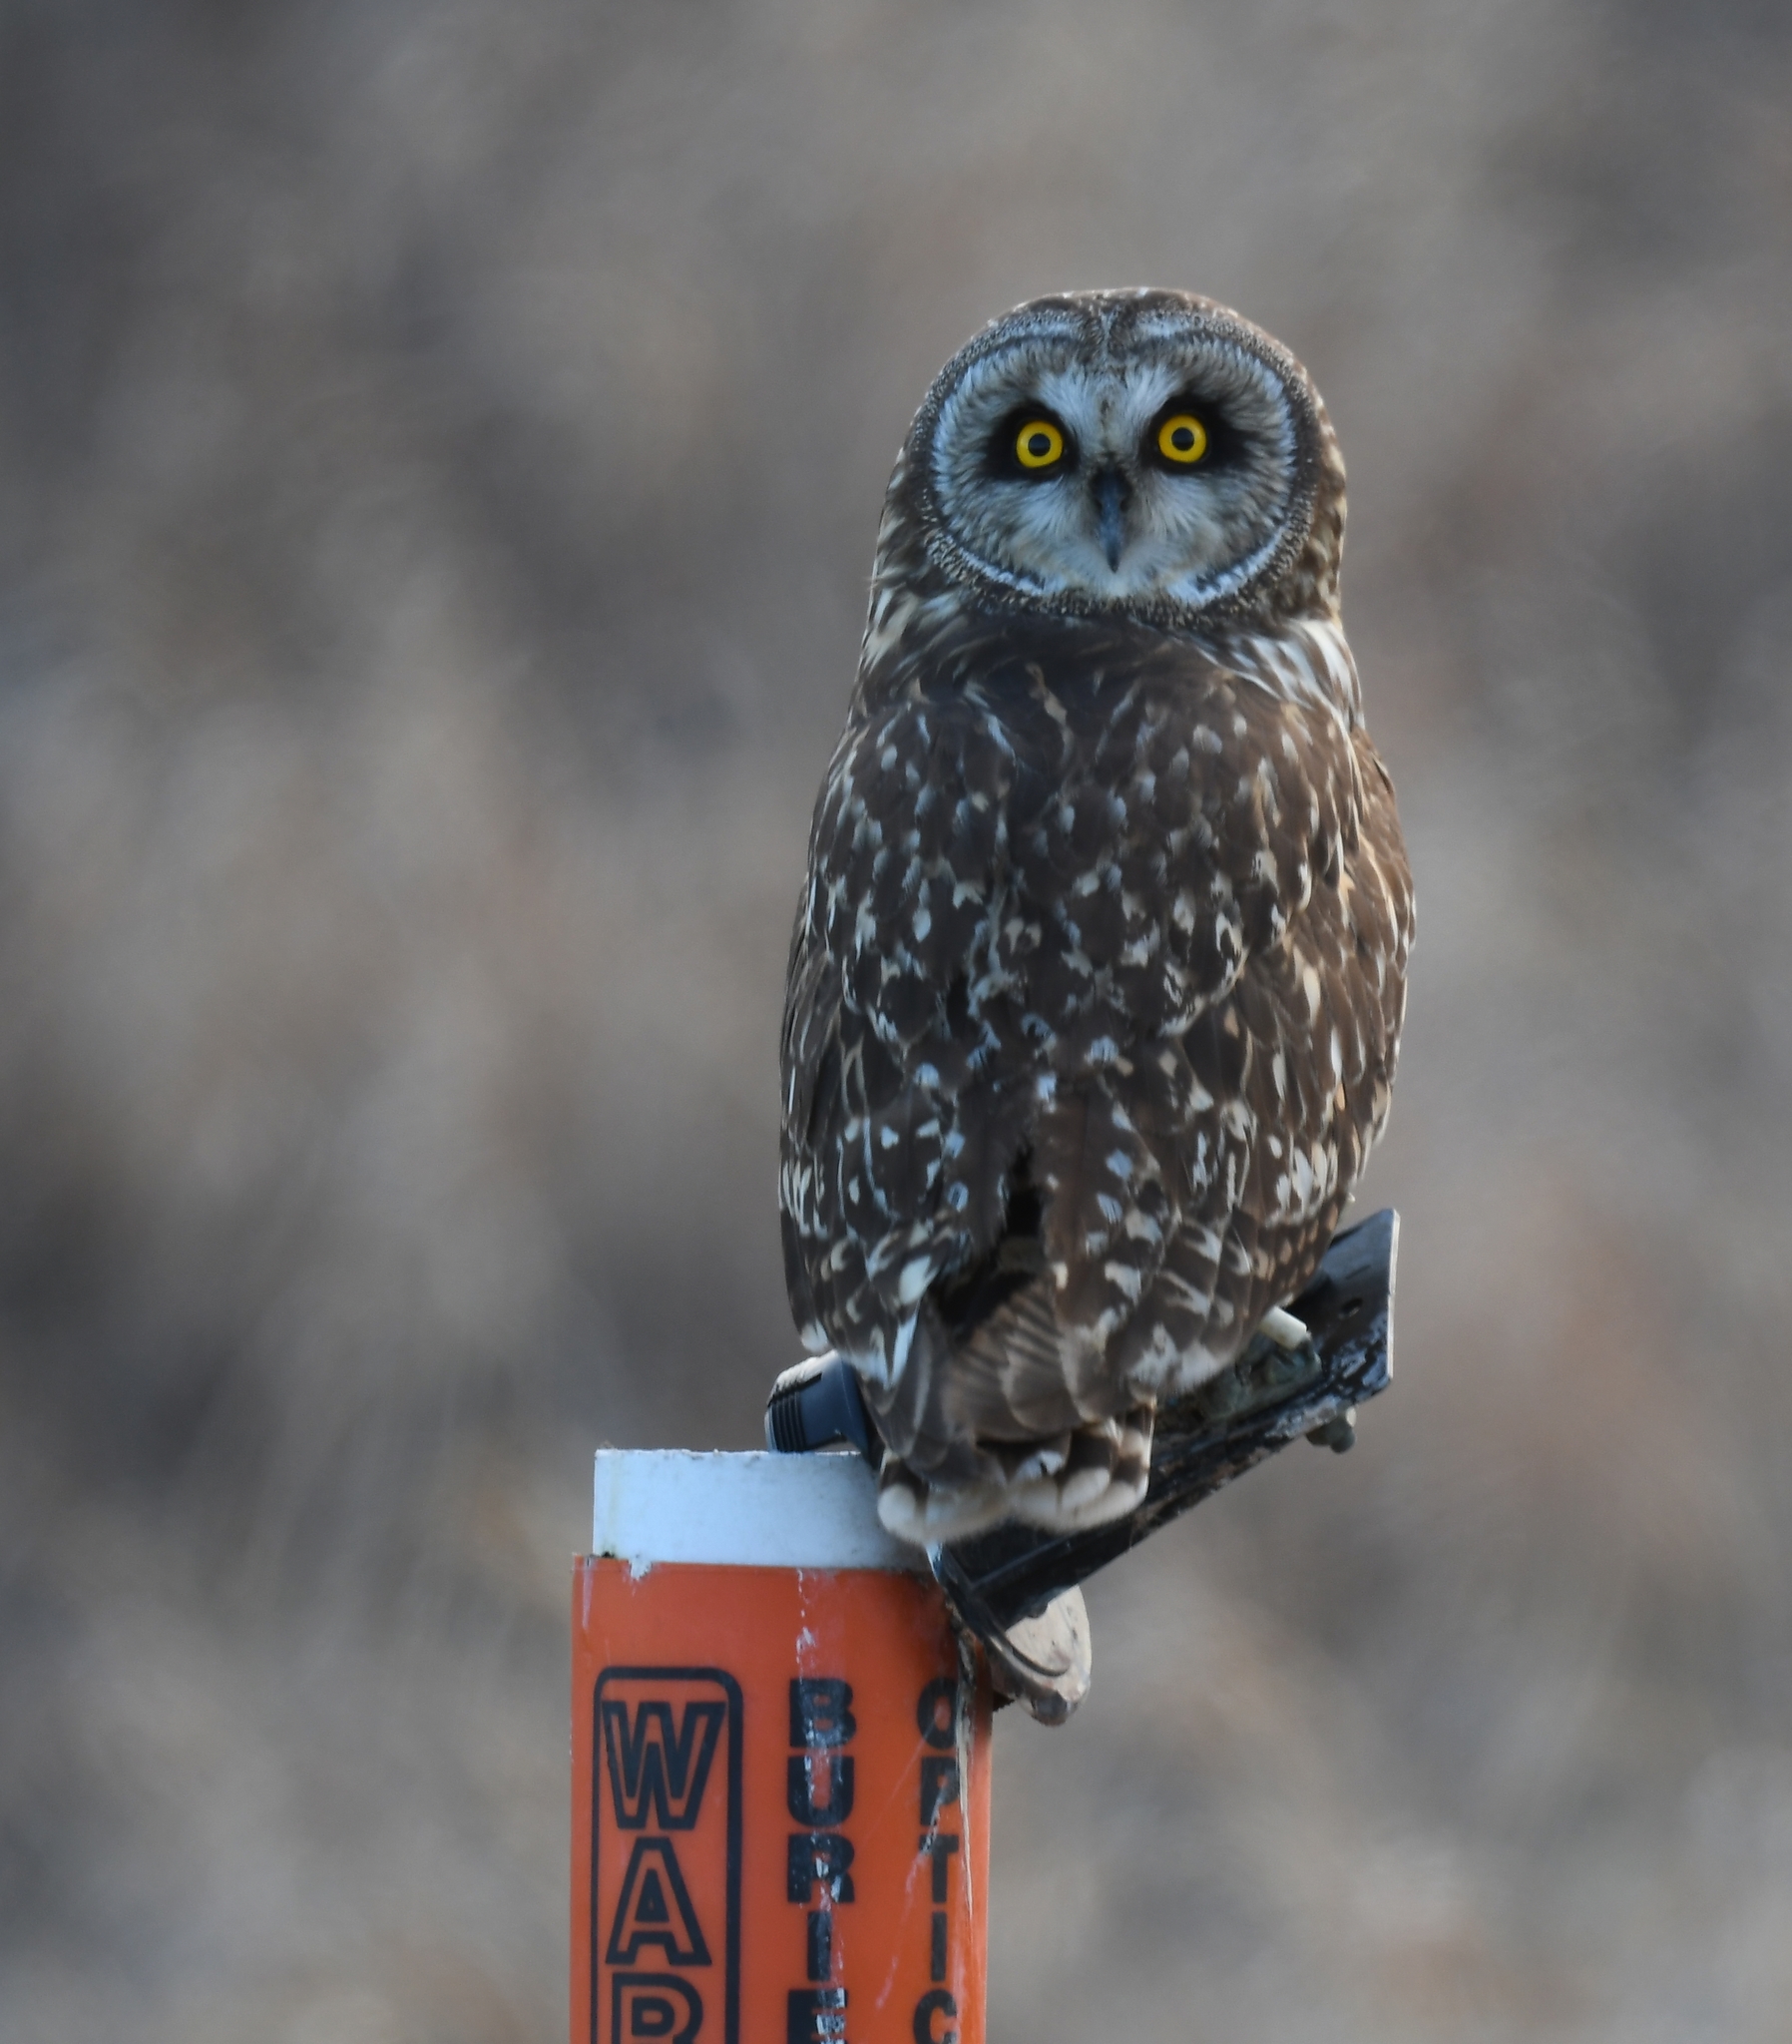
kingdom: Animalia
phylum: Chordata
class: Aves
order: Strigiformes
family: Strigidae
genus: Asio
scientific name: Asio flammeus
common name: Short-eared owl
